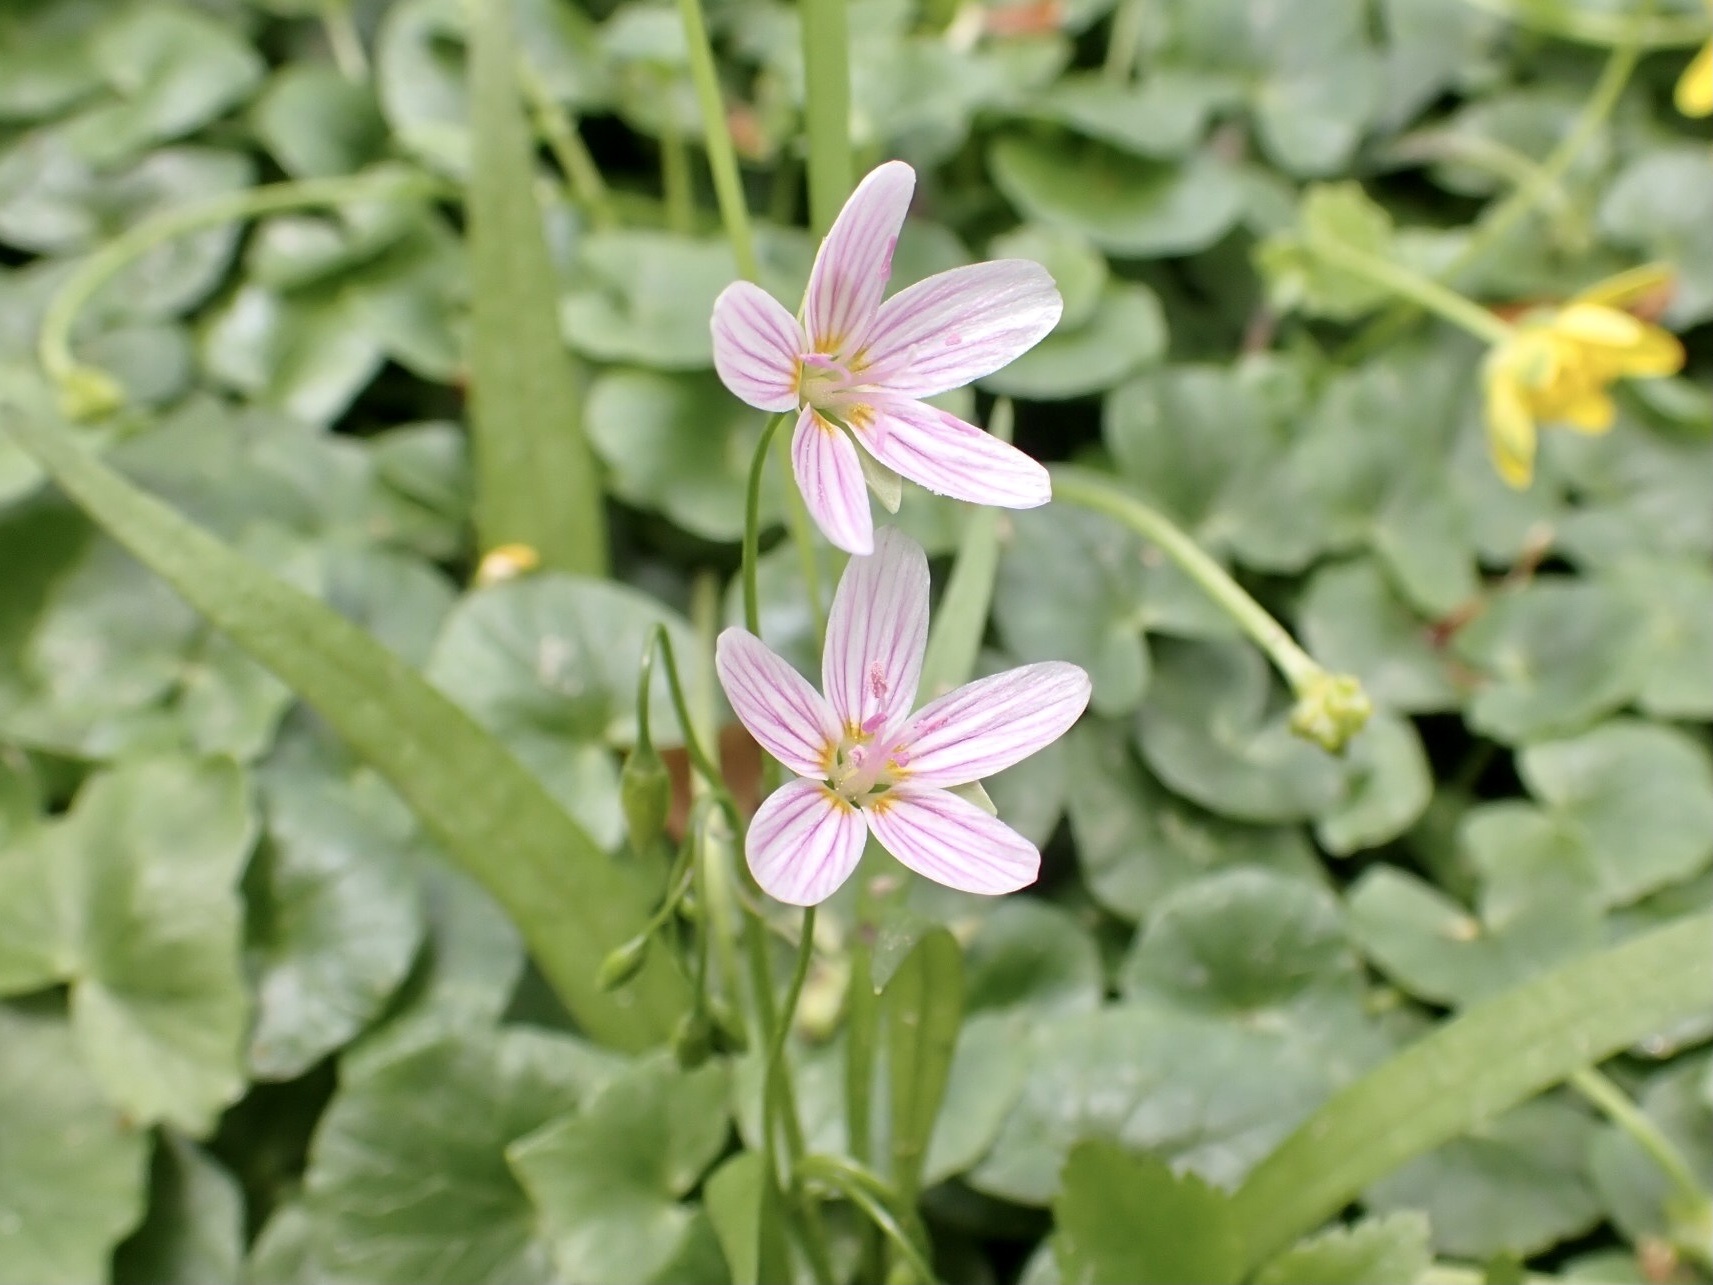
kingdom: Plantae
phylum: Tracheophyta
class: Magnoliopsida
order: Caryophyllales
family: Montiaceae
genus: Claytonia
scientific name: Claytonia virginica
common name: Virginia springbeauty
